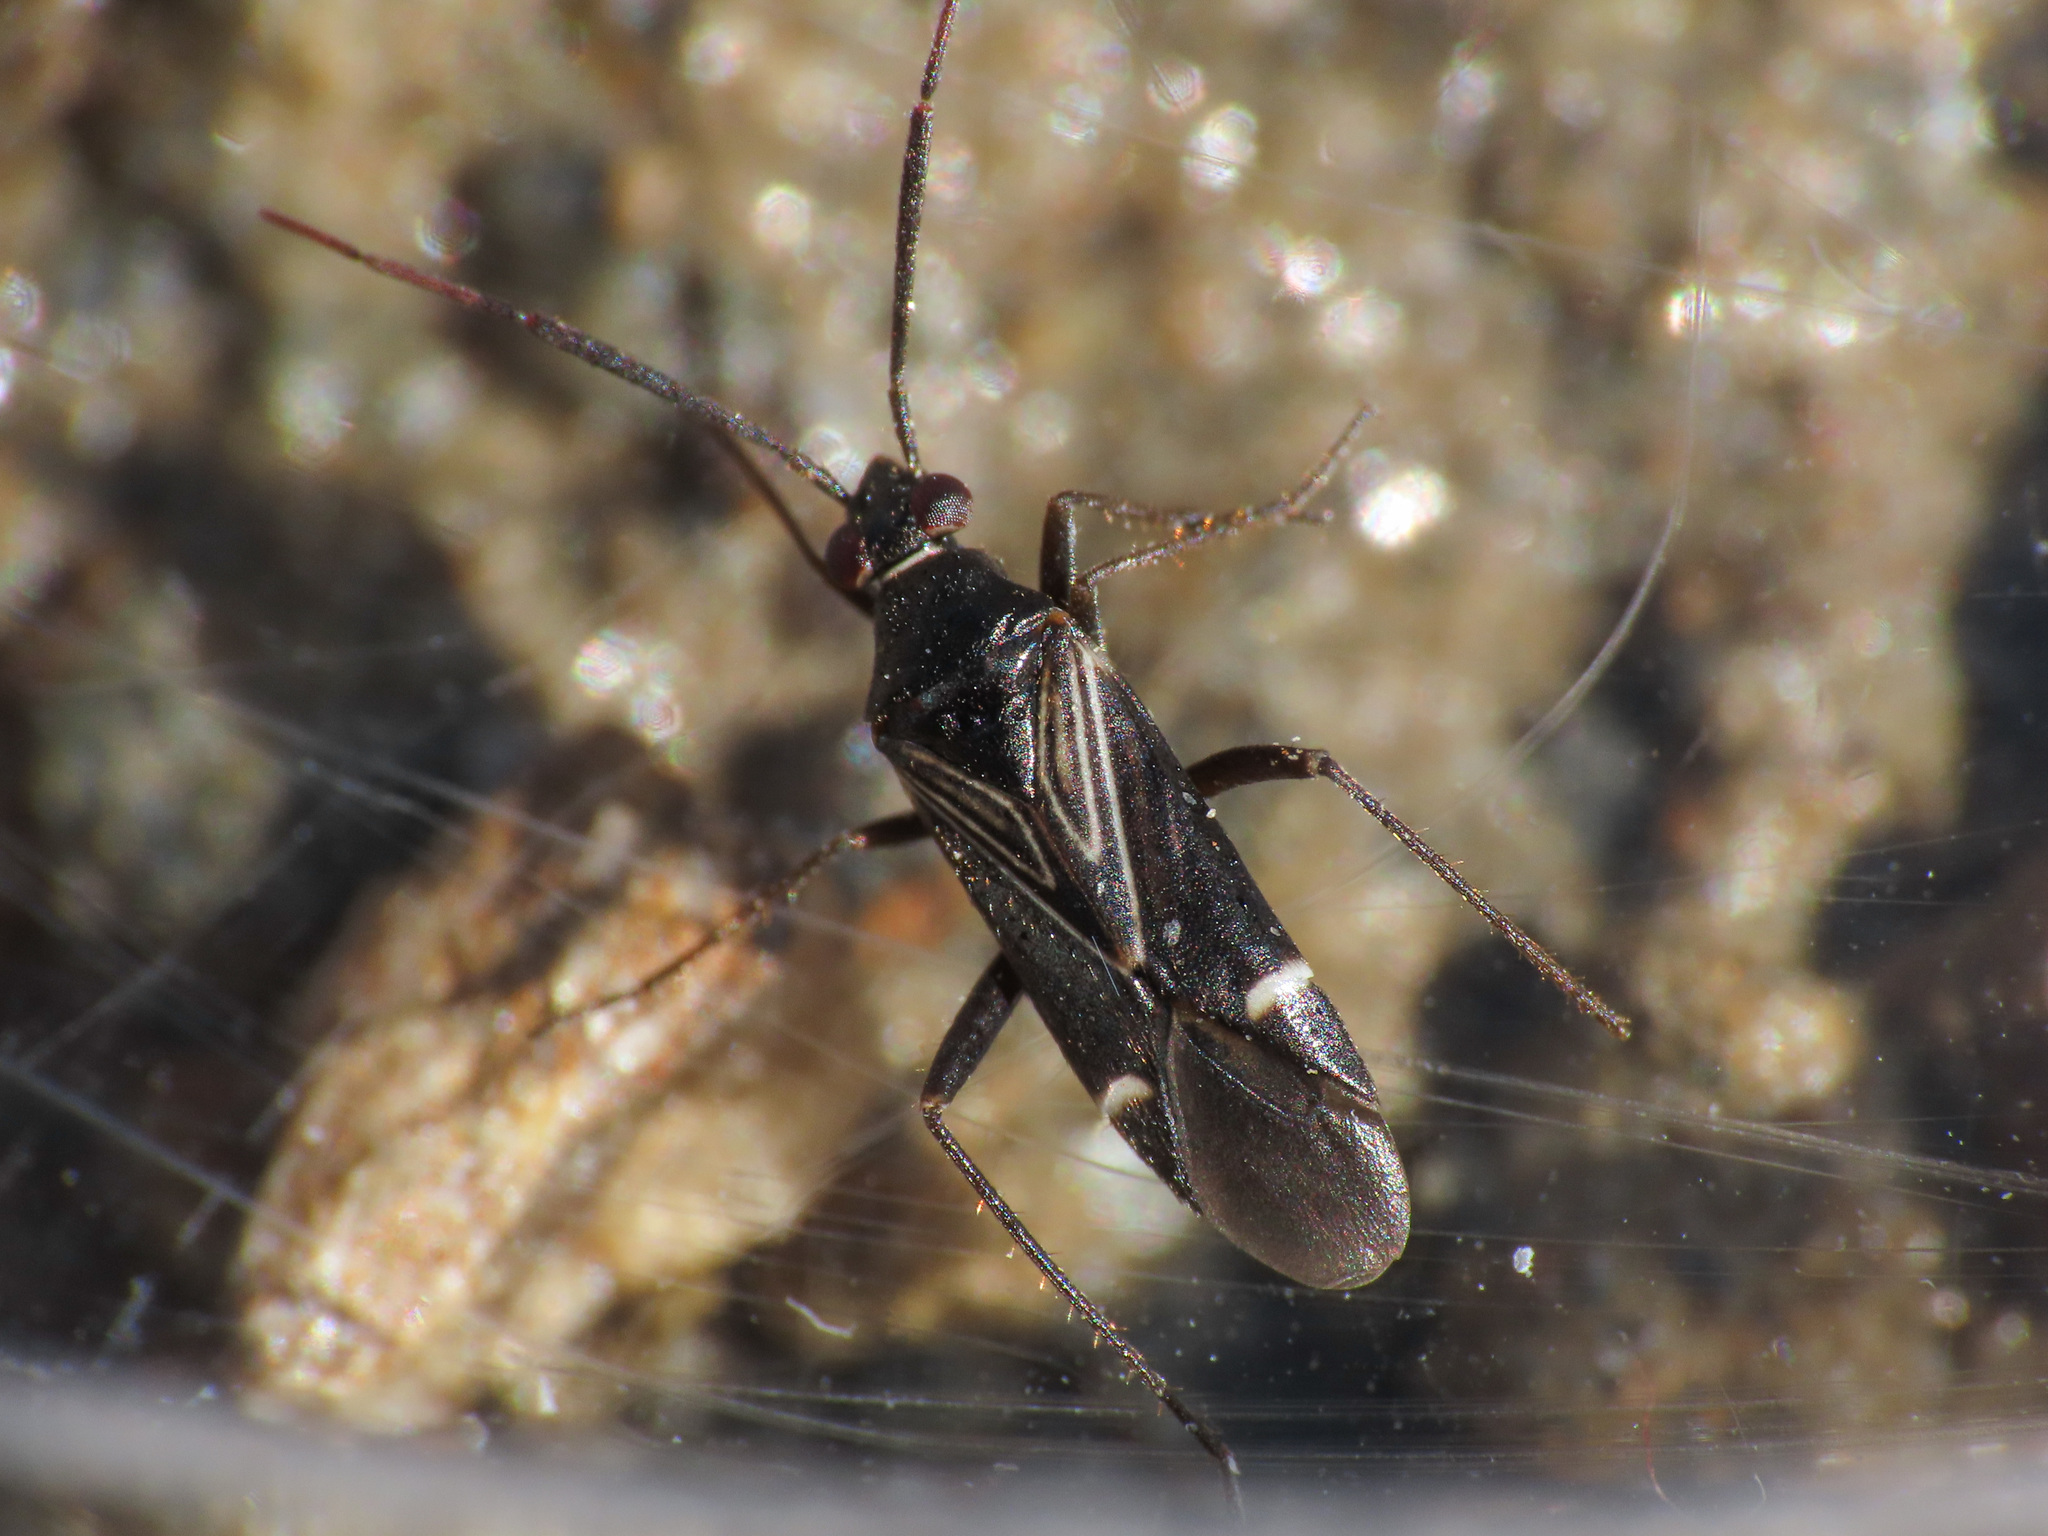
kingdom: Animalia
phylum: Arthropoda
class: Insecta
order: Hemiptera
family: Miridae
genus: Cremnocephalus
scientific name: Cremnocephalus alpestris
